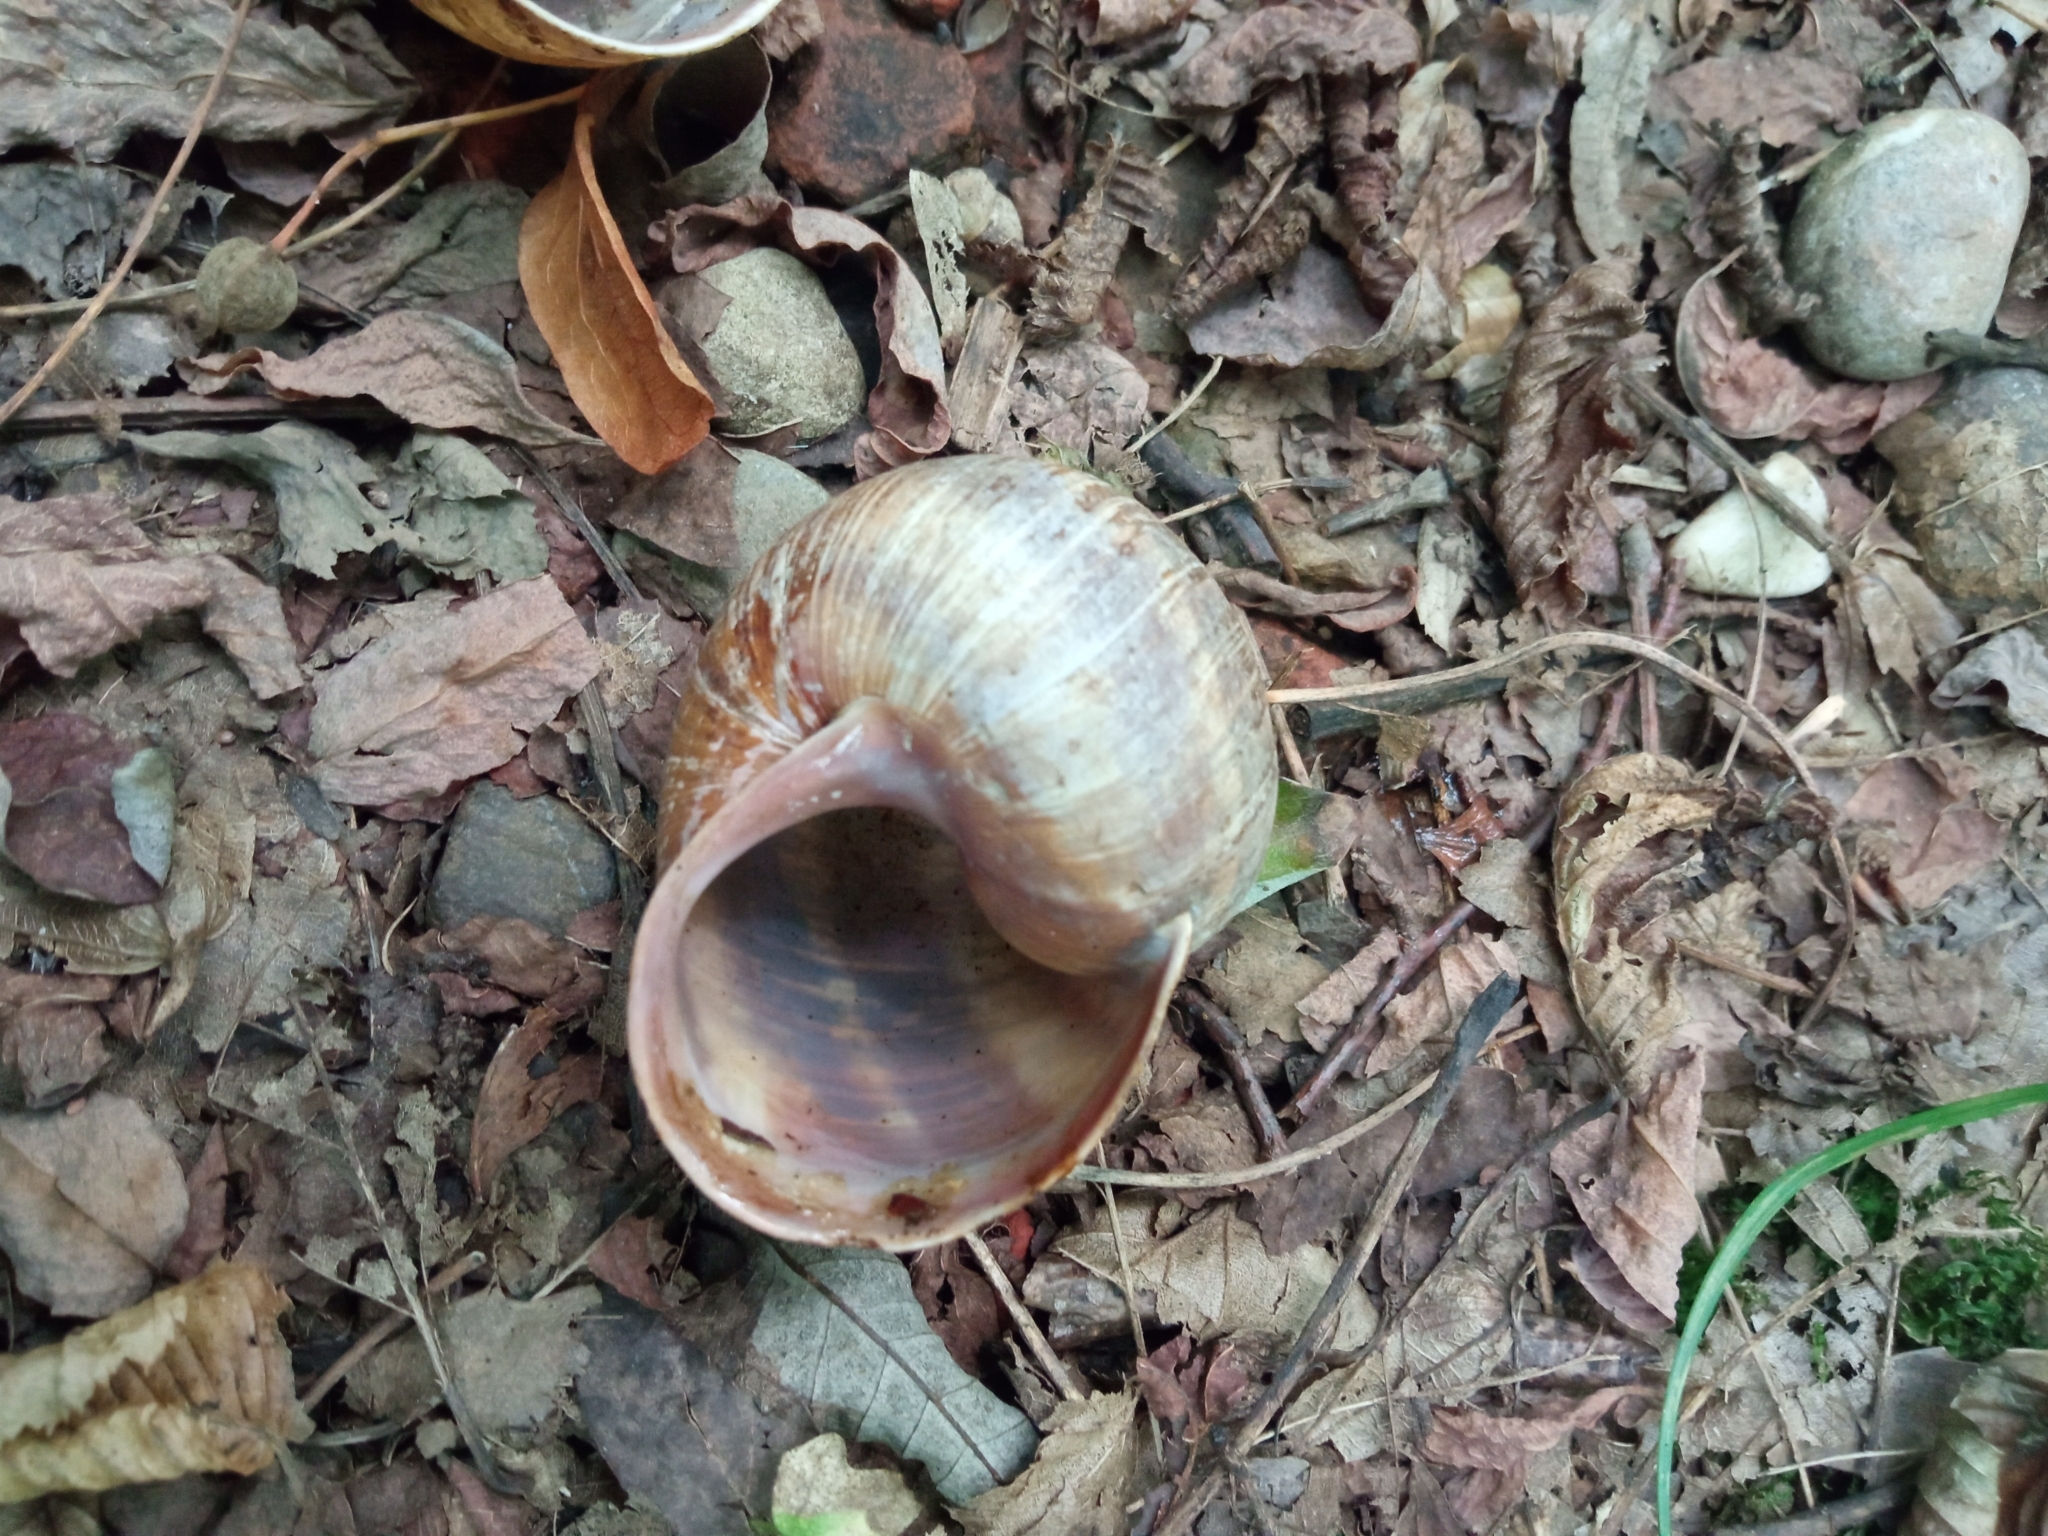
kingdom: Animalia
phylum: Mollusca
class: Gastropoda
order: Stylommatophora
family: Helicidae
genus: Helix
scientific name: Helix pomatia
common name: Roman snail
